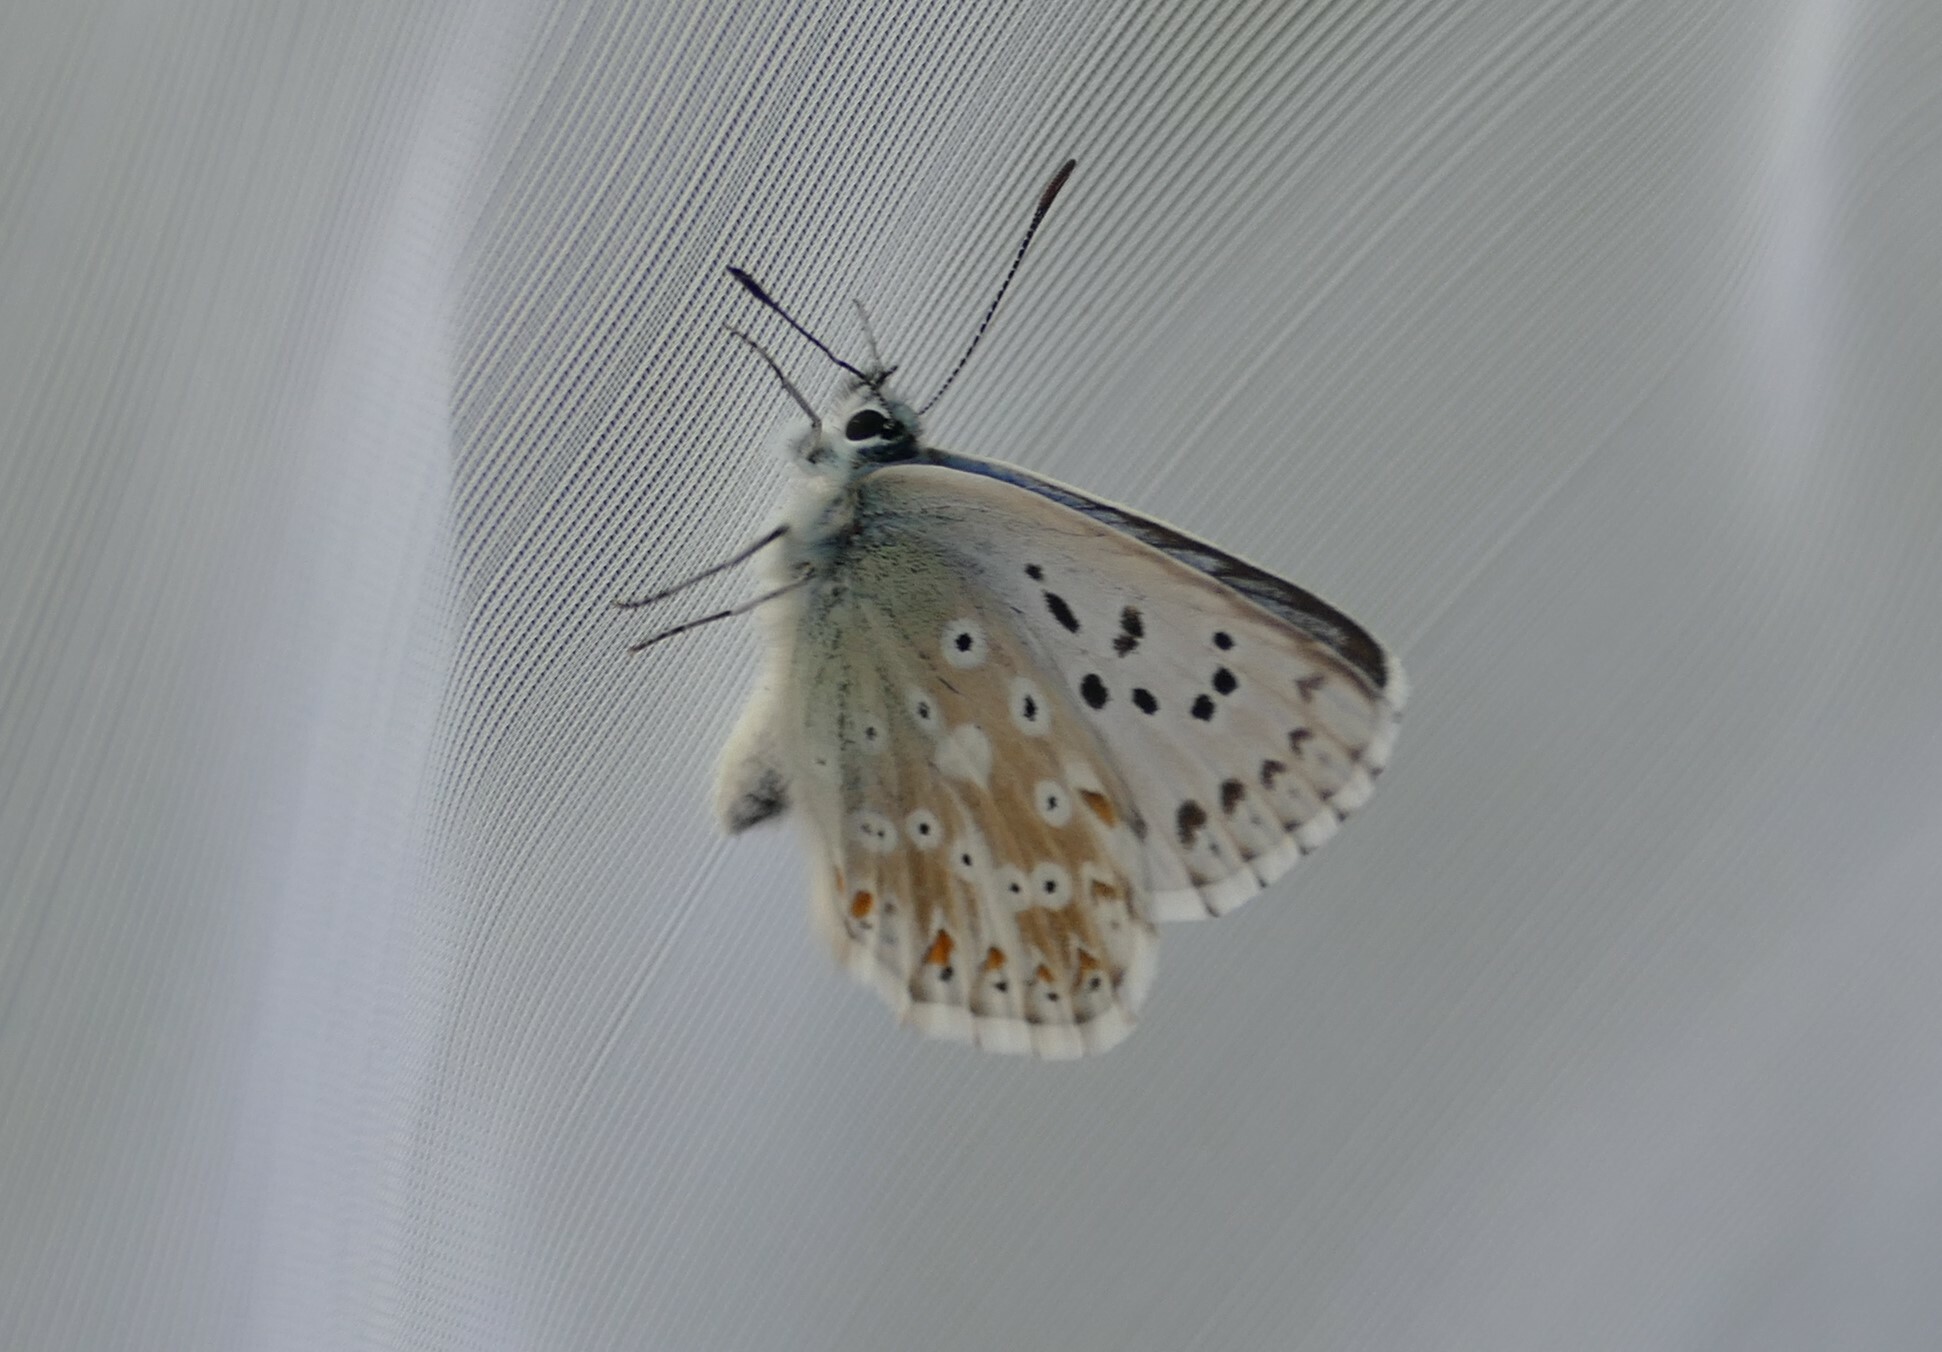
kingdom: Animalia
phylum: Arthropoda
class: Insecta
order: Lepidoptera
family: Lycaenidae
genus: Lysandra
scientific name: Lysandra coridon
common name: Chalkhill blue
